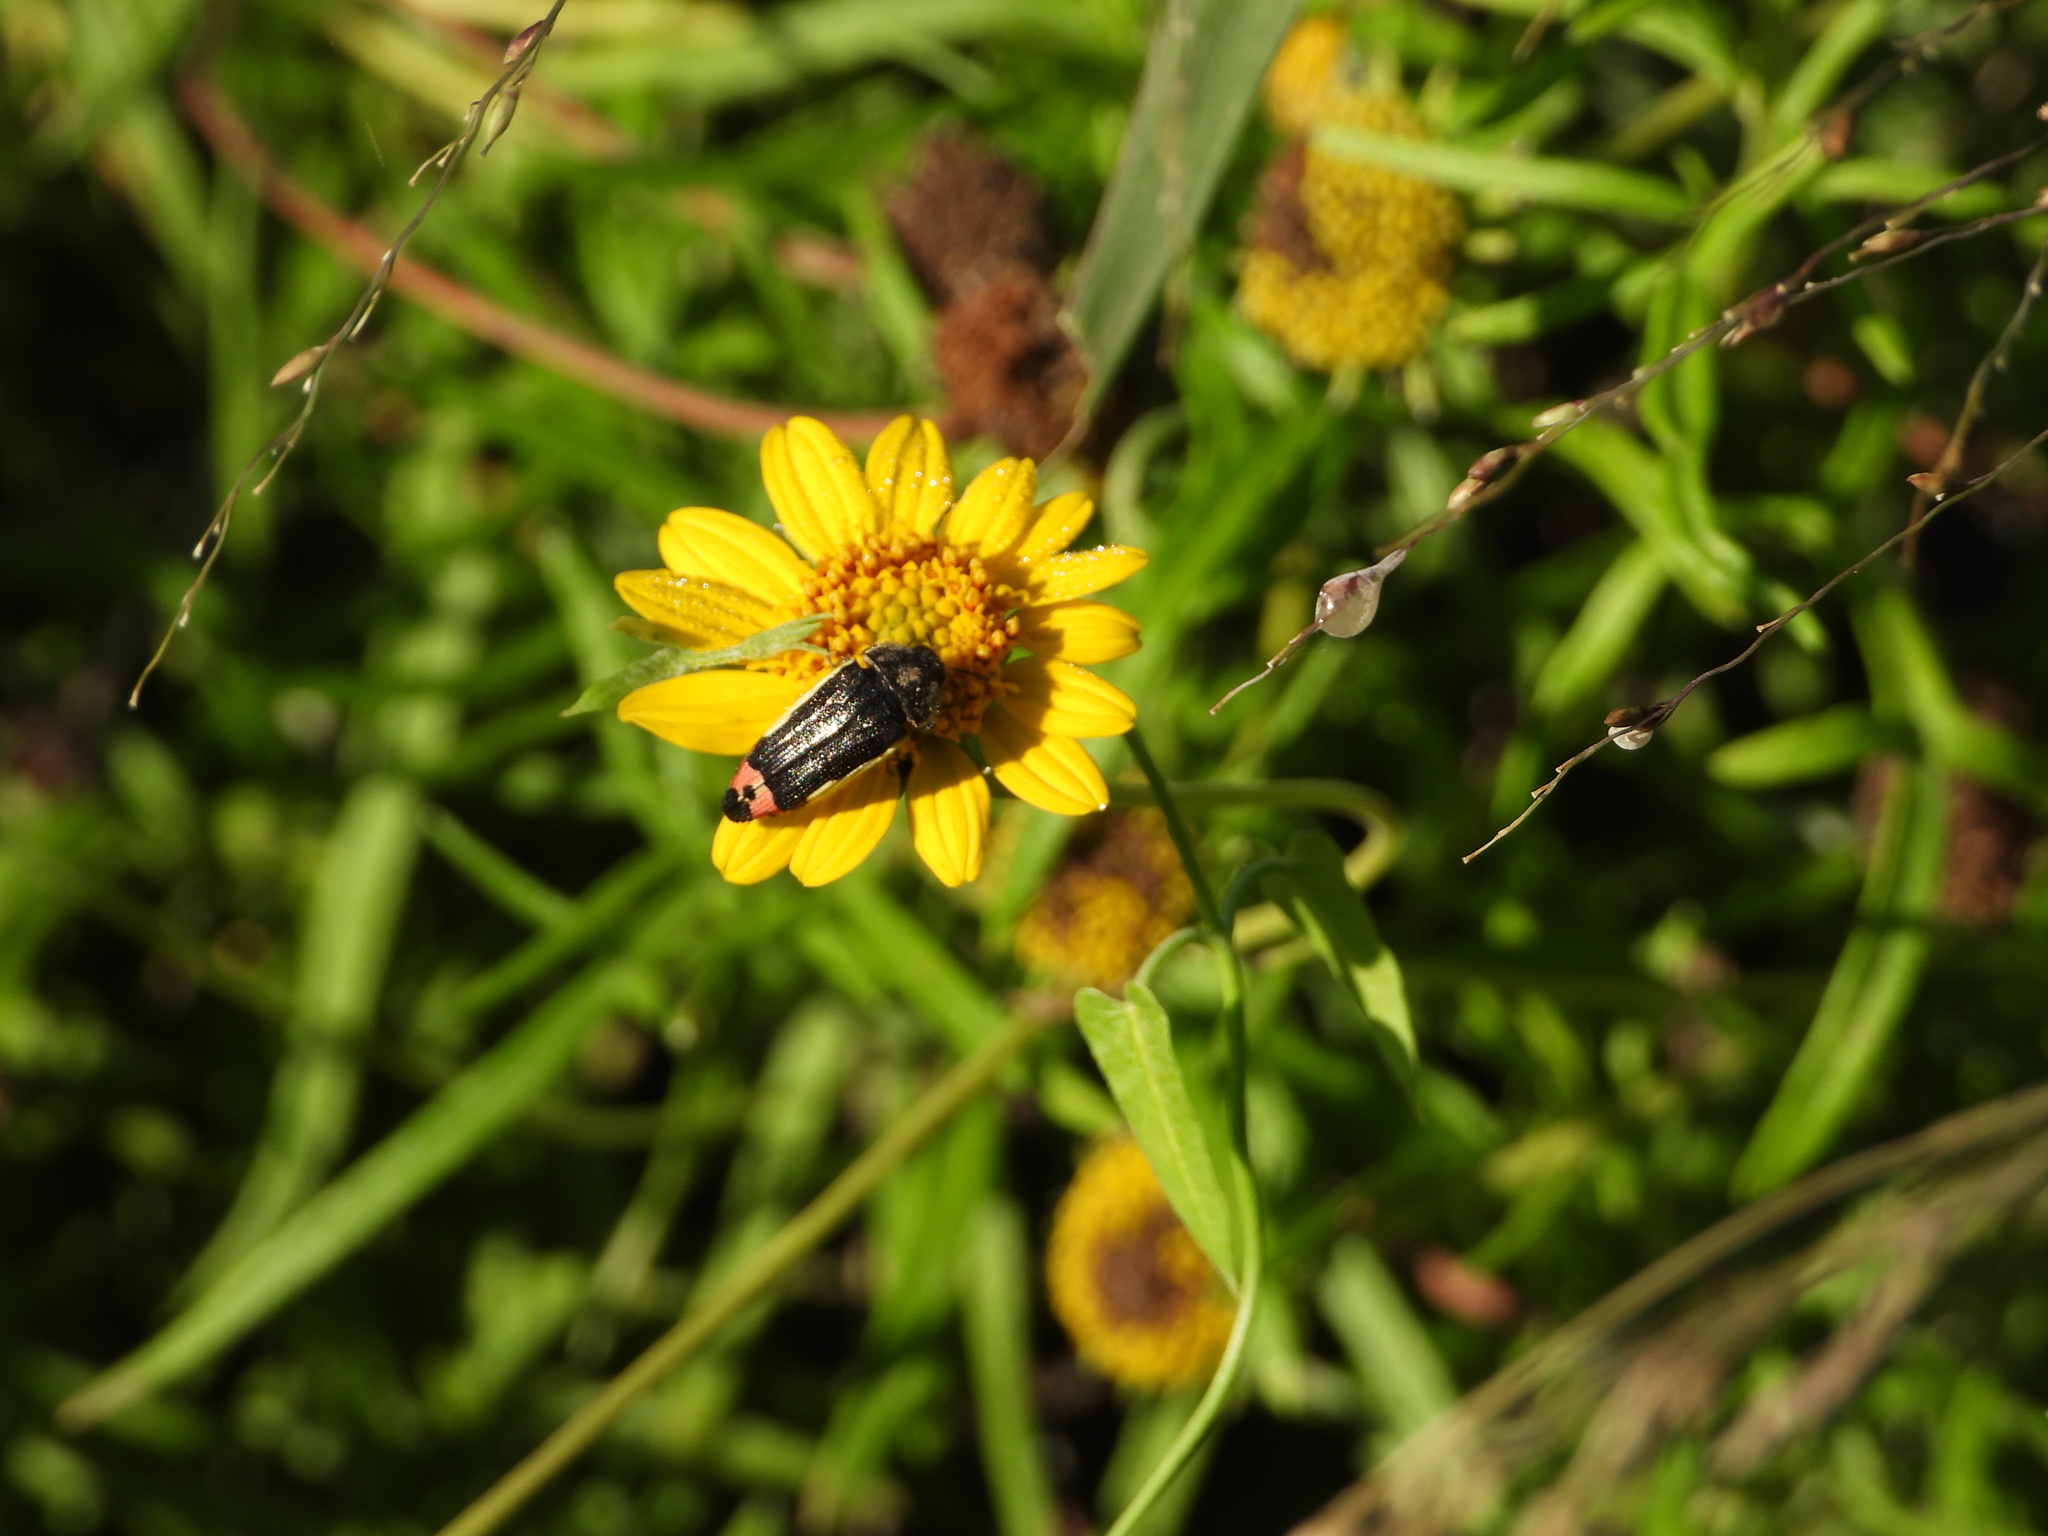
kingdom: Animalia
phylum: Arthropoda
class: Insecta
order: Coleoptera
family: Buprestidae
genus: Acmaeodera
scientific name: Acmaeodera flavomarginata
